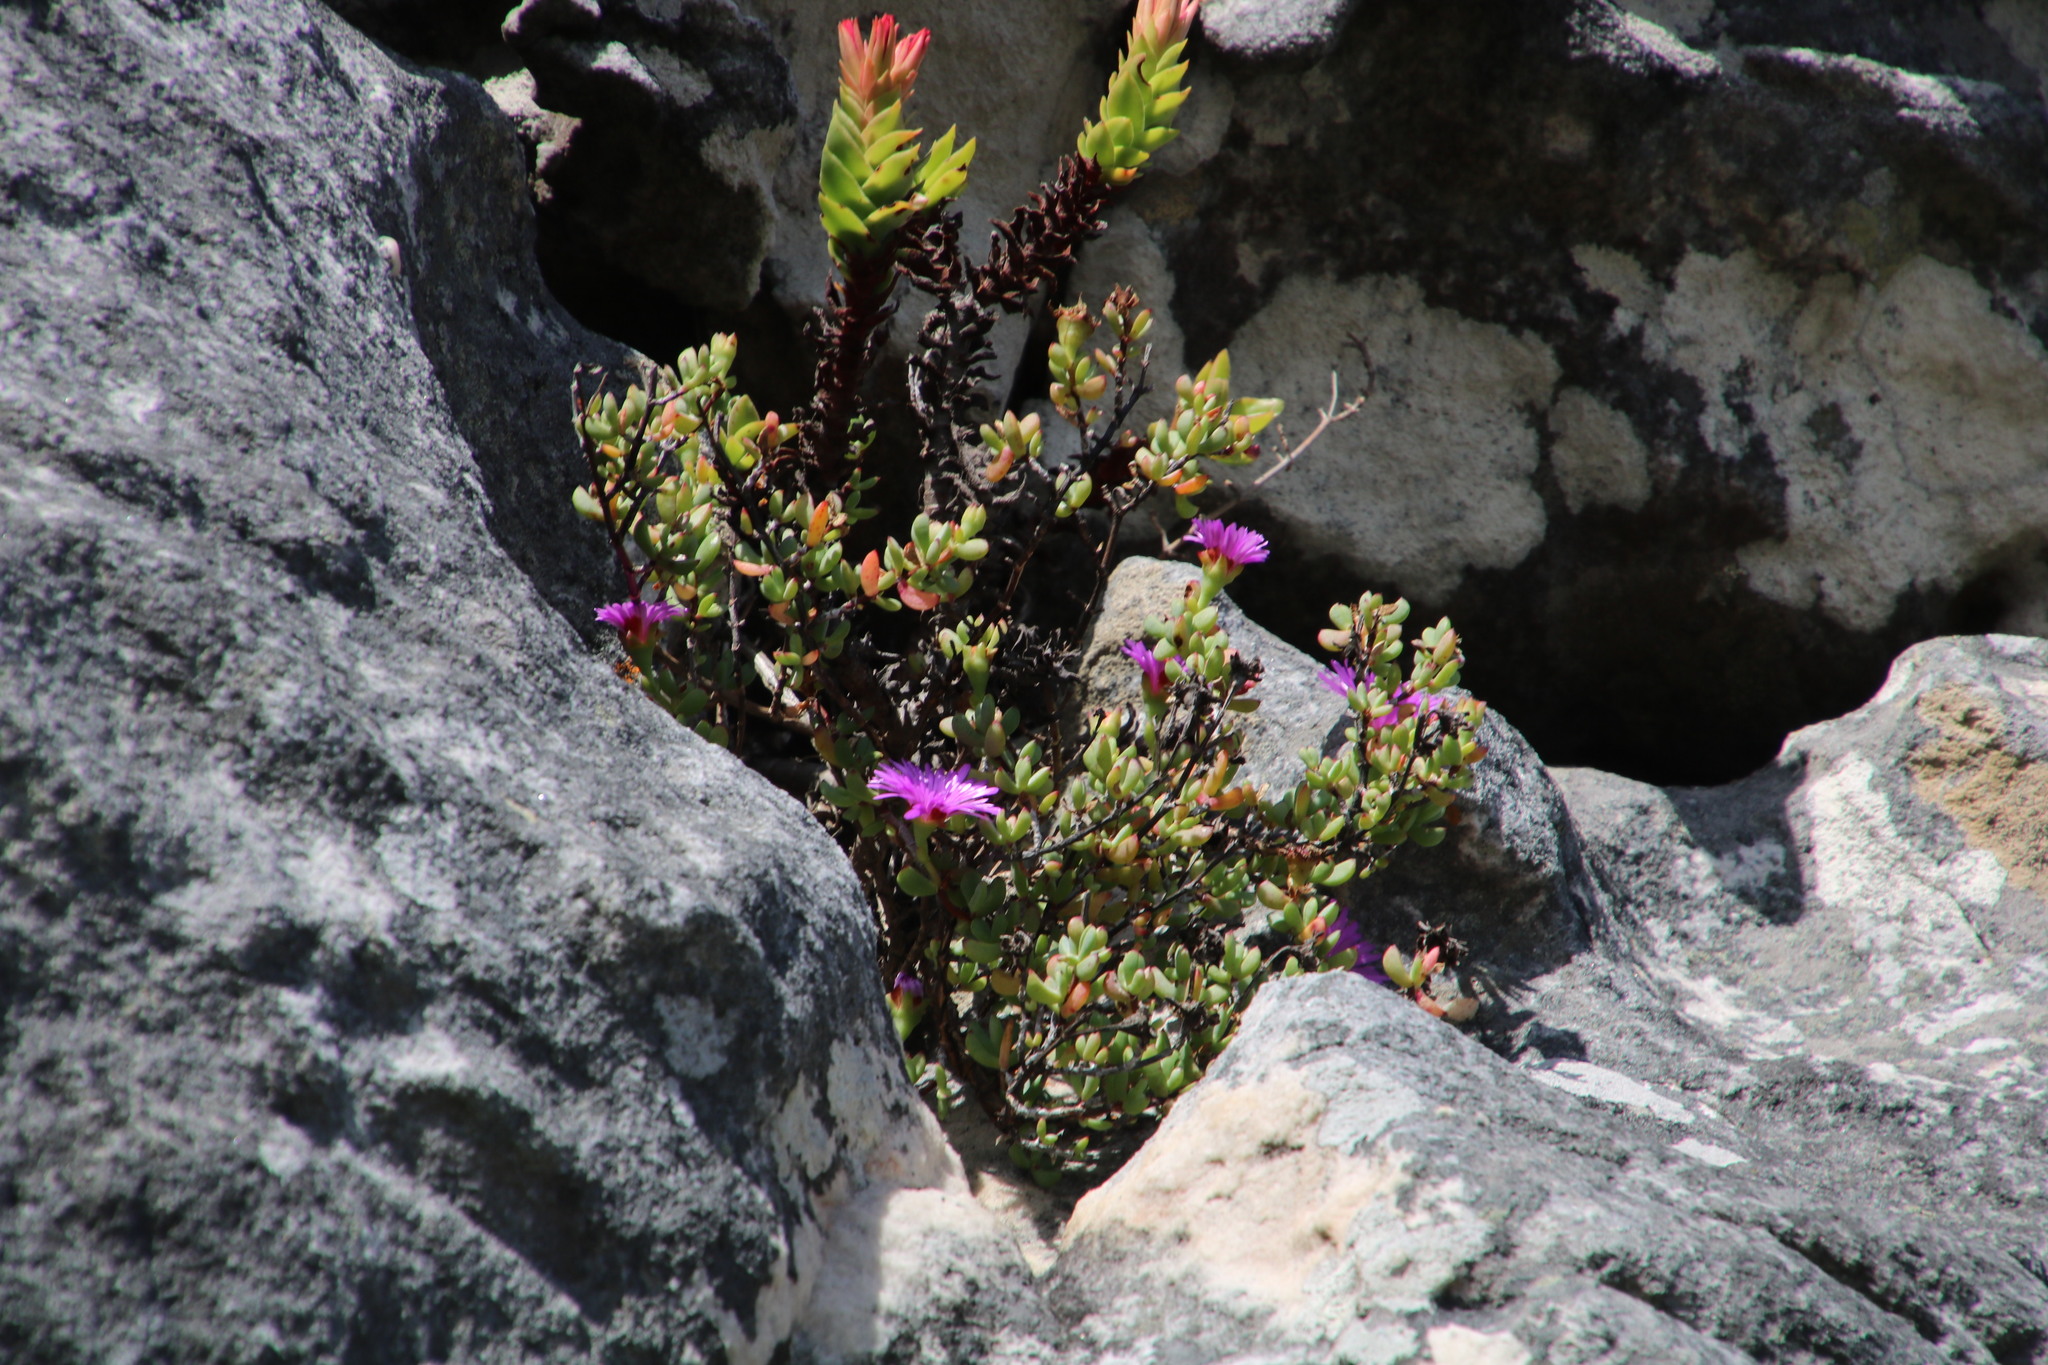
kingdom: Plantae
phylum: Tracheophyta
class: Magnoliopsida
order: Caryophyllales
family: Aizoaceae
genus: Oscularia
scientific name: Oscularia falciformis
